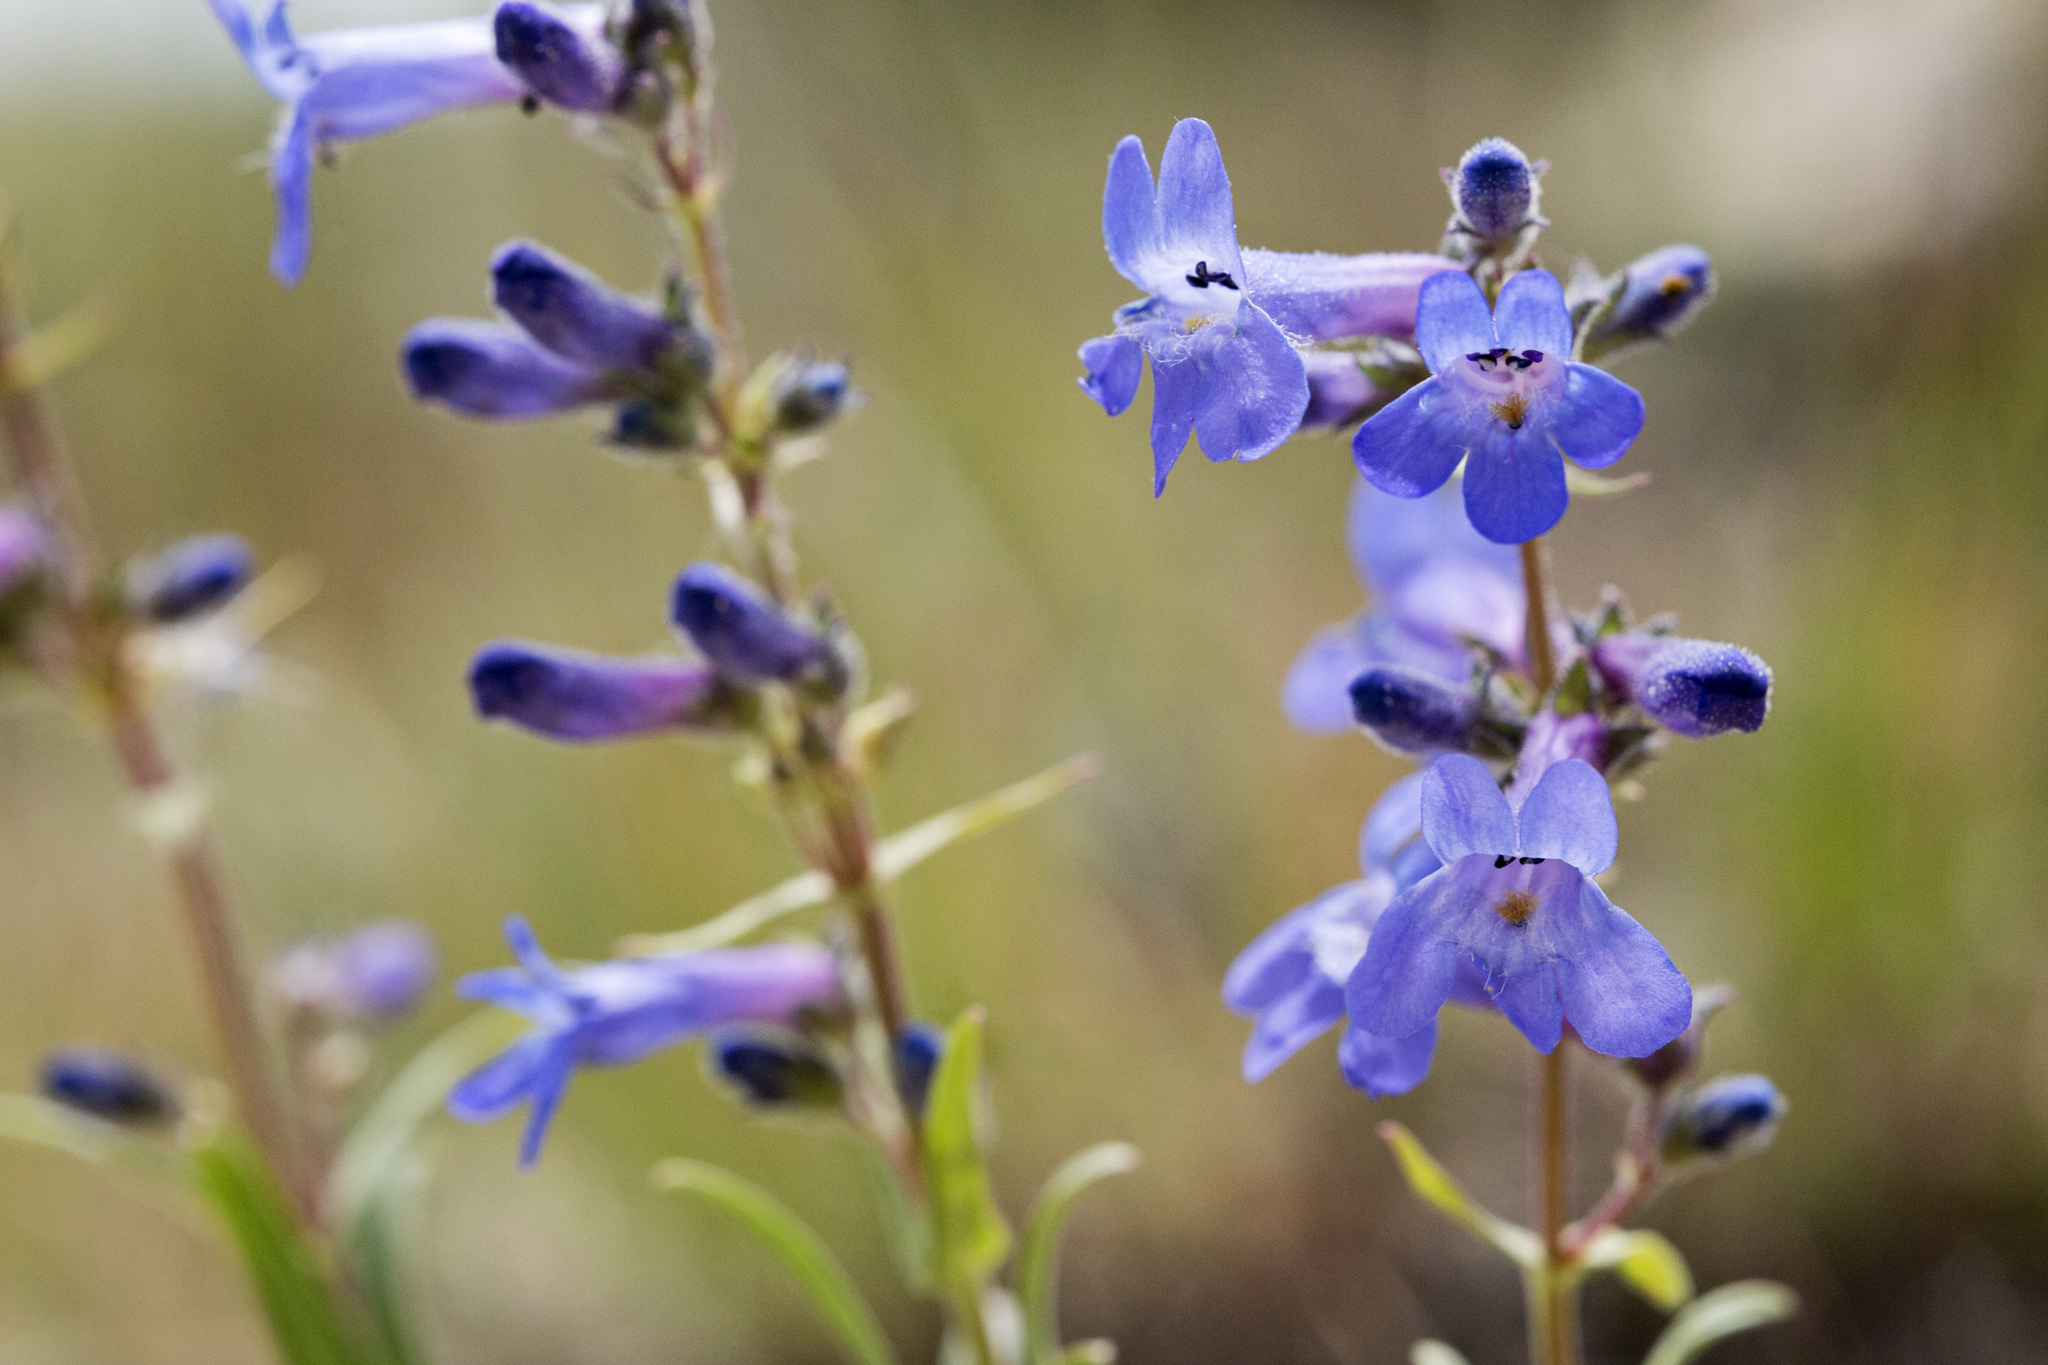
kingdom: Plantae
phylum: Tracheophyta
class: Magnoliopsida
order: Lamiales
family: Plantaginaceae
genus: Penstemon
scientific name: Penstemon humilis
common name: Low penstemon
